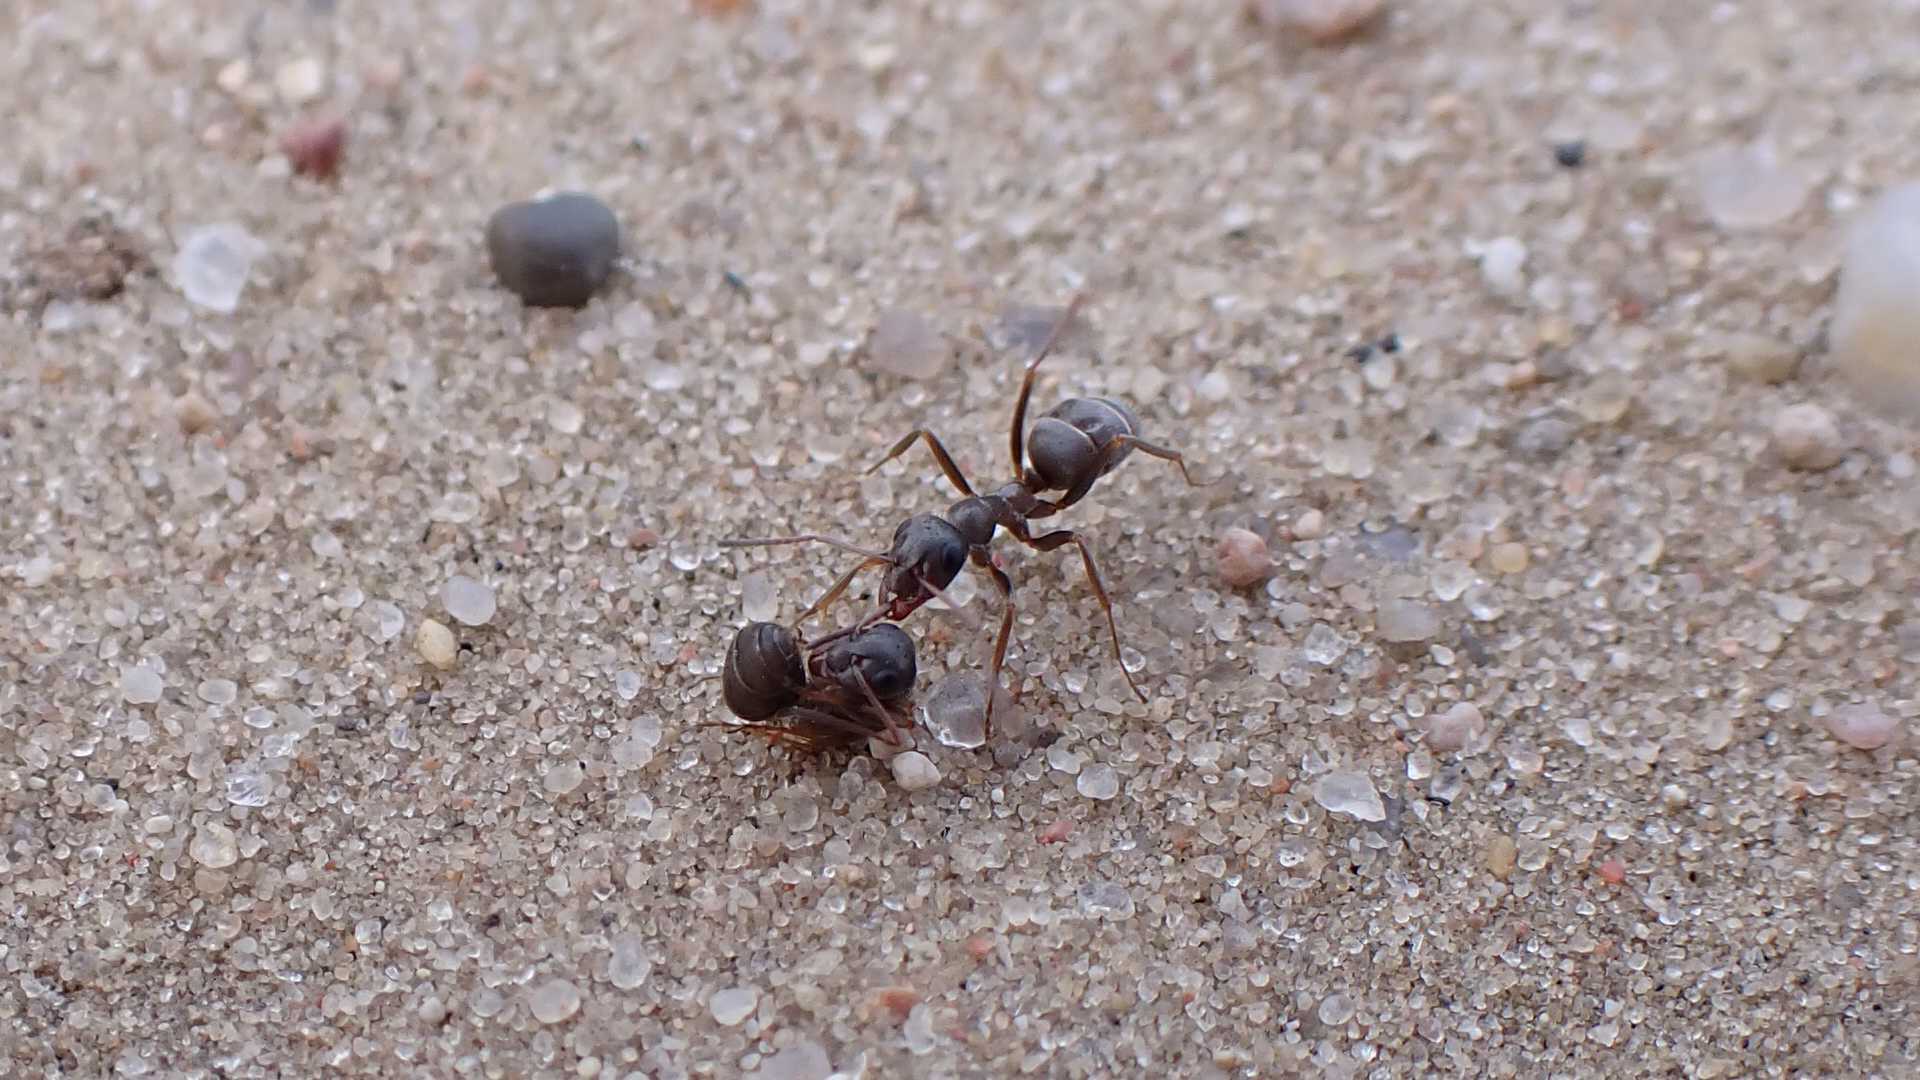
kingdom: Animalia
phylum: Arthropoda
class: Insecta
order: Hymenoptera
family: Formicidae
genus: Formica
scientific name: Formica cinerea
